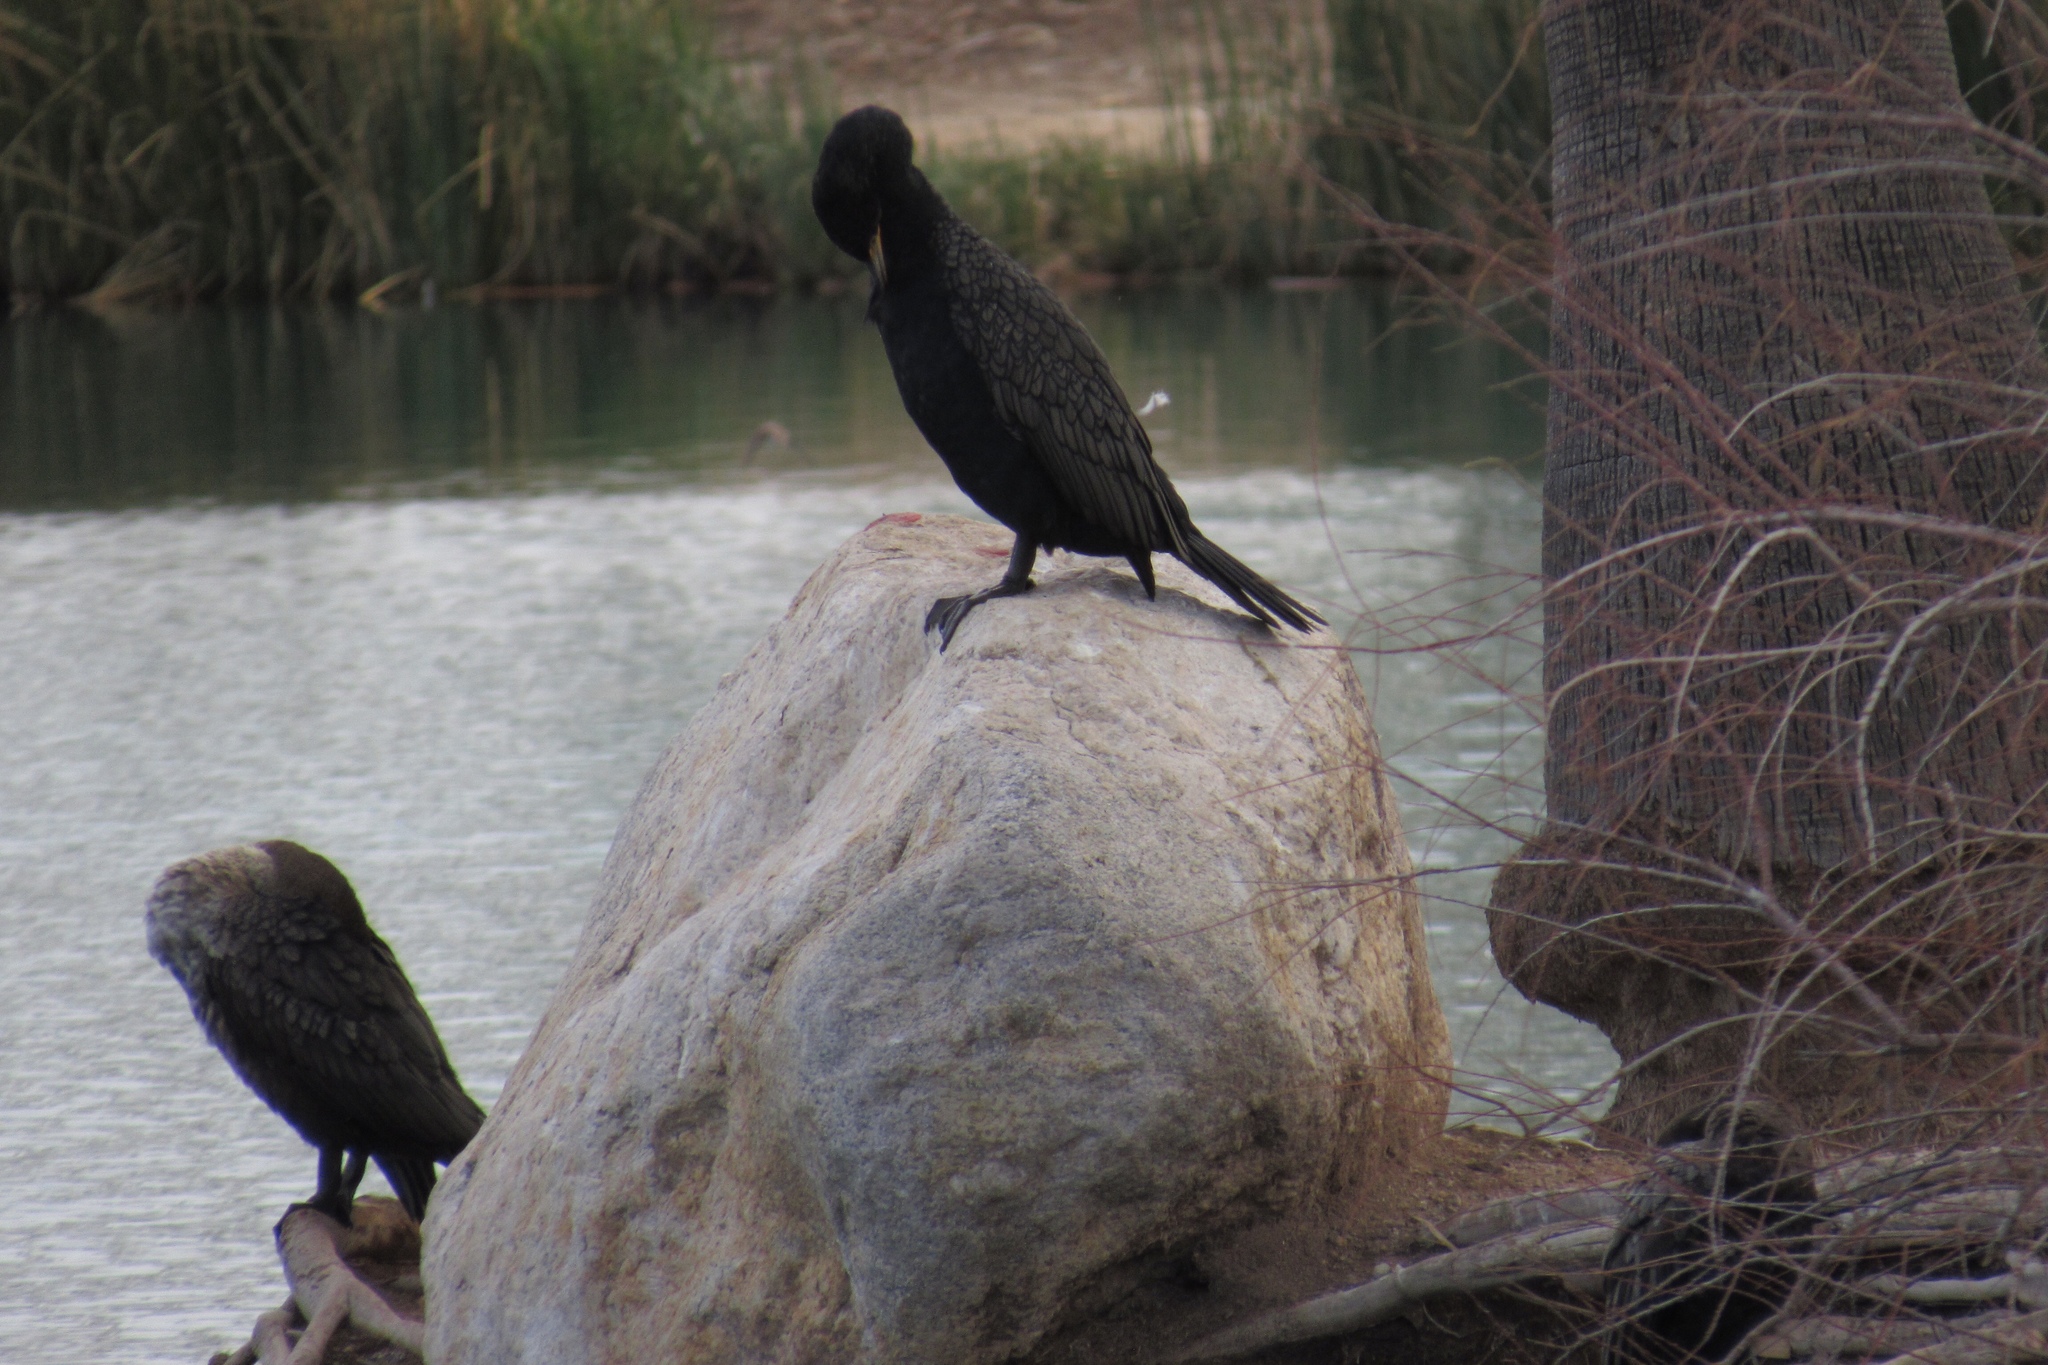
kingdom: Animalia
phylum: Chordata
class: Aves
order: Suliformes
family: Phalacrocoracidae
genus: Phalacrocorax
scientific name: Phalacrocorax auritus
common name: Double-crested cormorant
